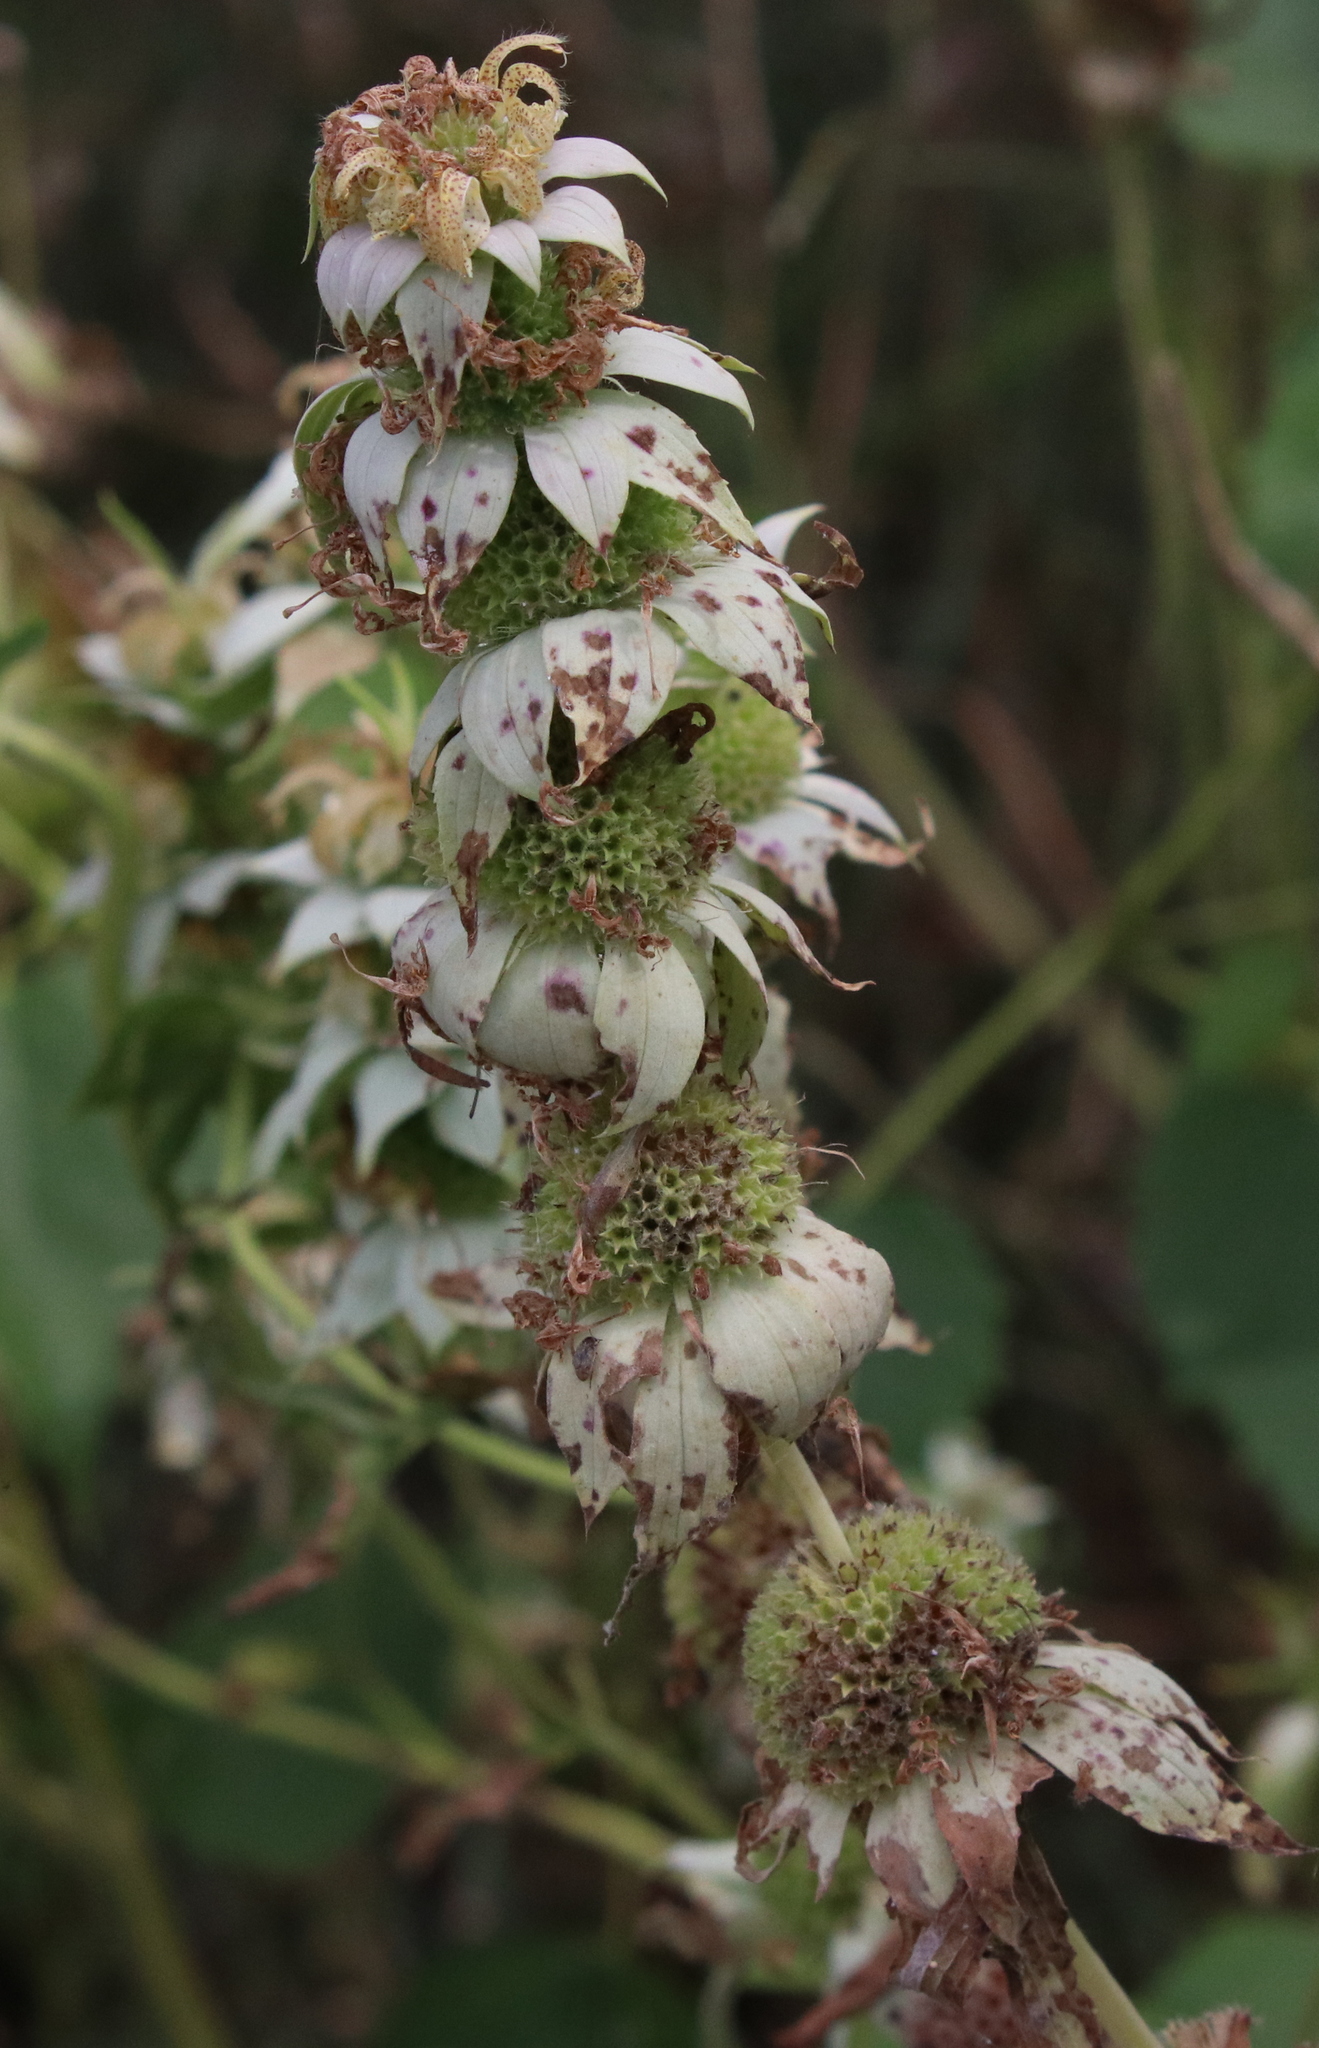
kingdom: Plantae
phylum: Tracheophyta
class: Magnoliopsida
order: Lamiales
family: Lamiaceae
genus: Monarda
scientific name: Monarda punctata
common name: Dotted monarda
